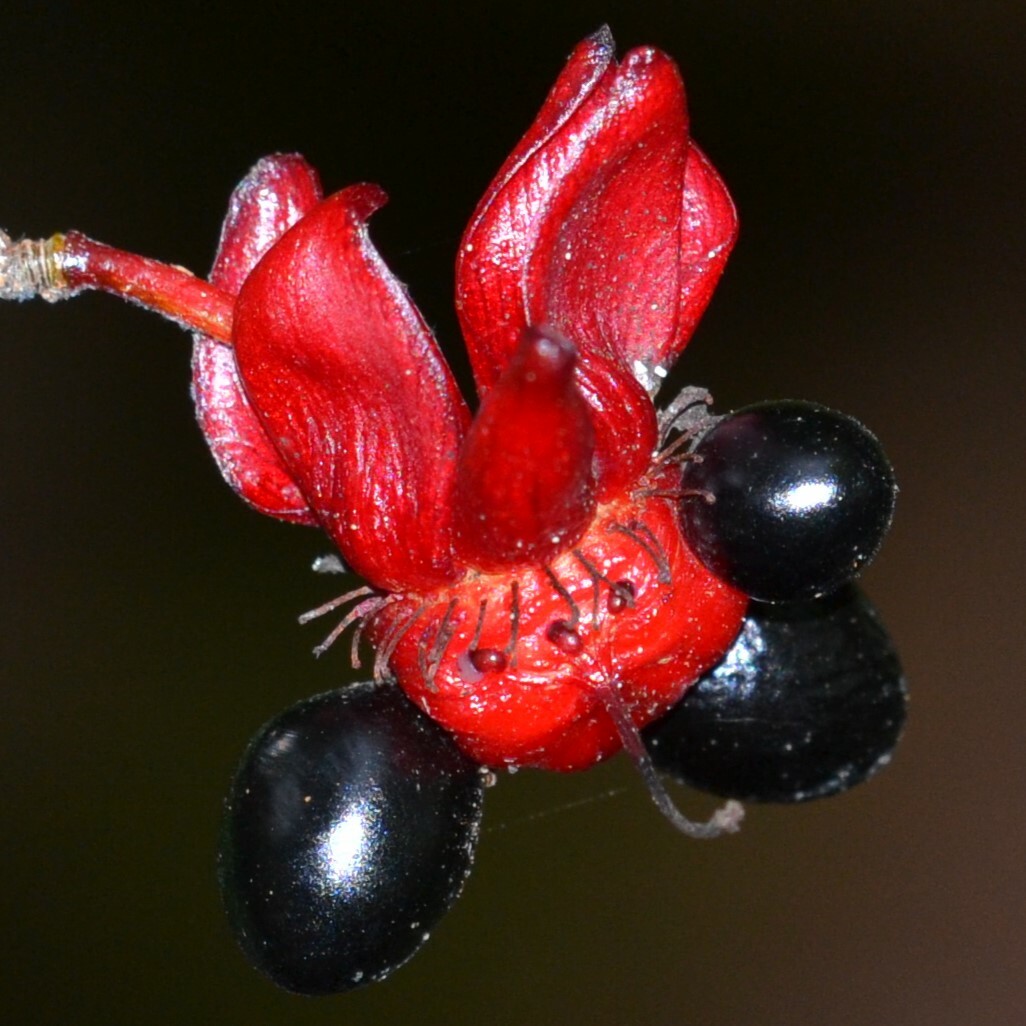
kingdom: Plantae
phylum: Tracheophyta
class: Magnoliopsida
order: Malpighiales
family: Ochnaceae
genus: Ochna
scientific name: Ochna serrulata
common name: Mickey mouse plant
